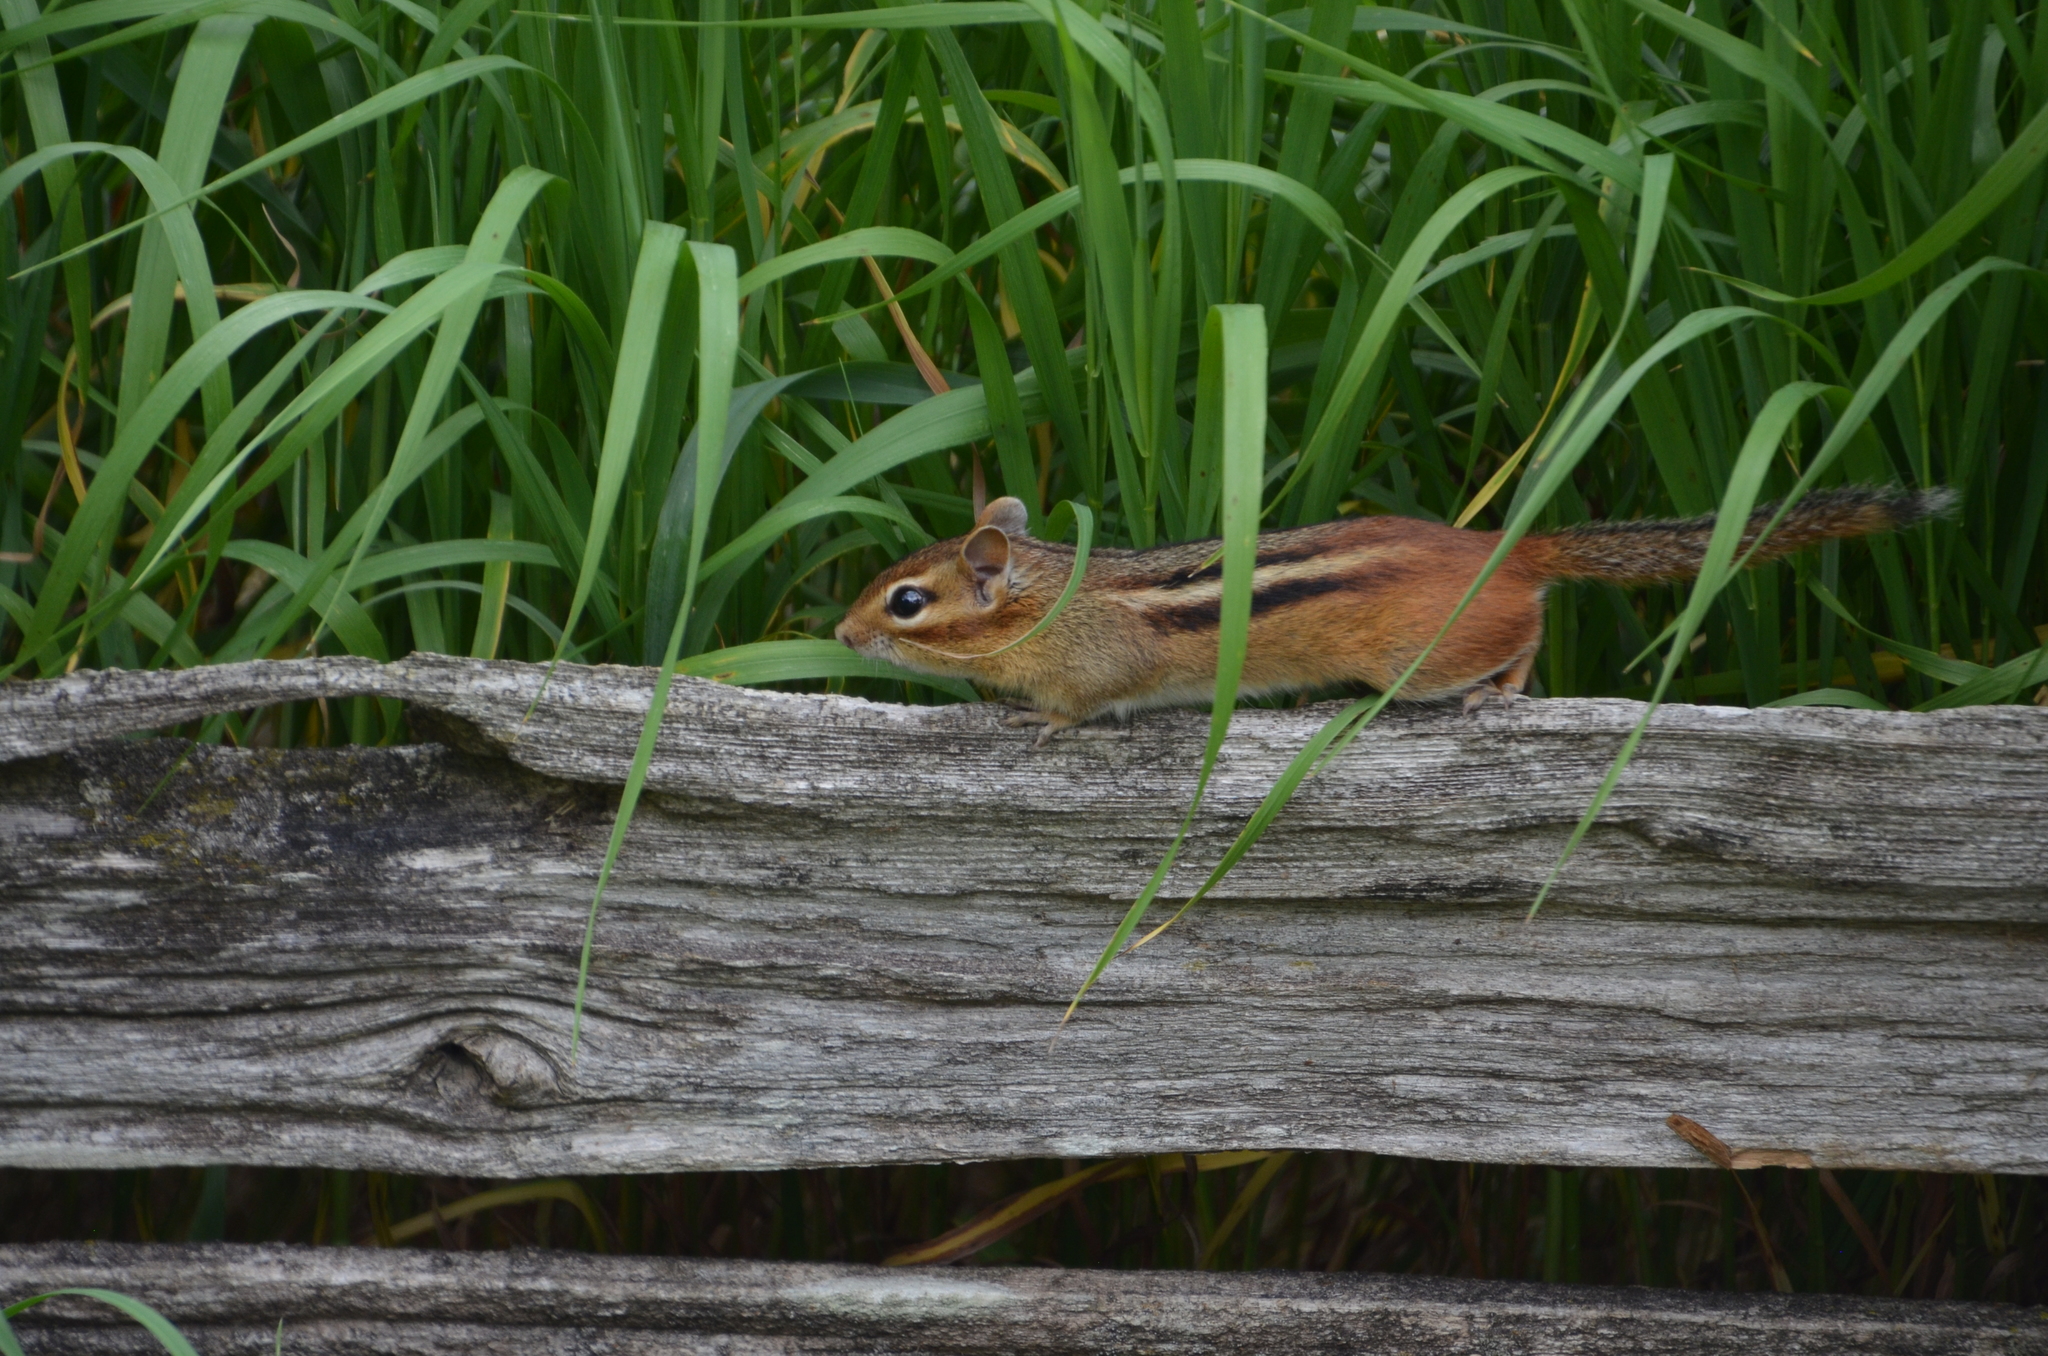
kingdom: Animalia
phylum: Chordata
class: Mammalia
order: Rodentia
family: Sciuridae
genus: Tamias
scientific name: Tamias striatus
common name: Eastern chipmunk
